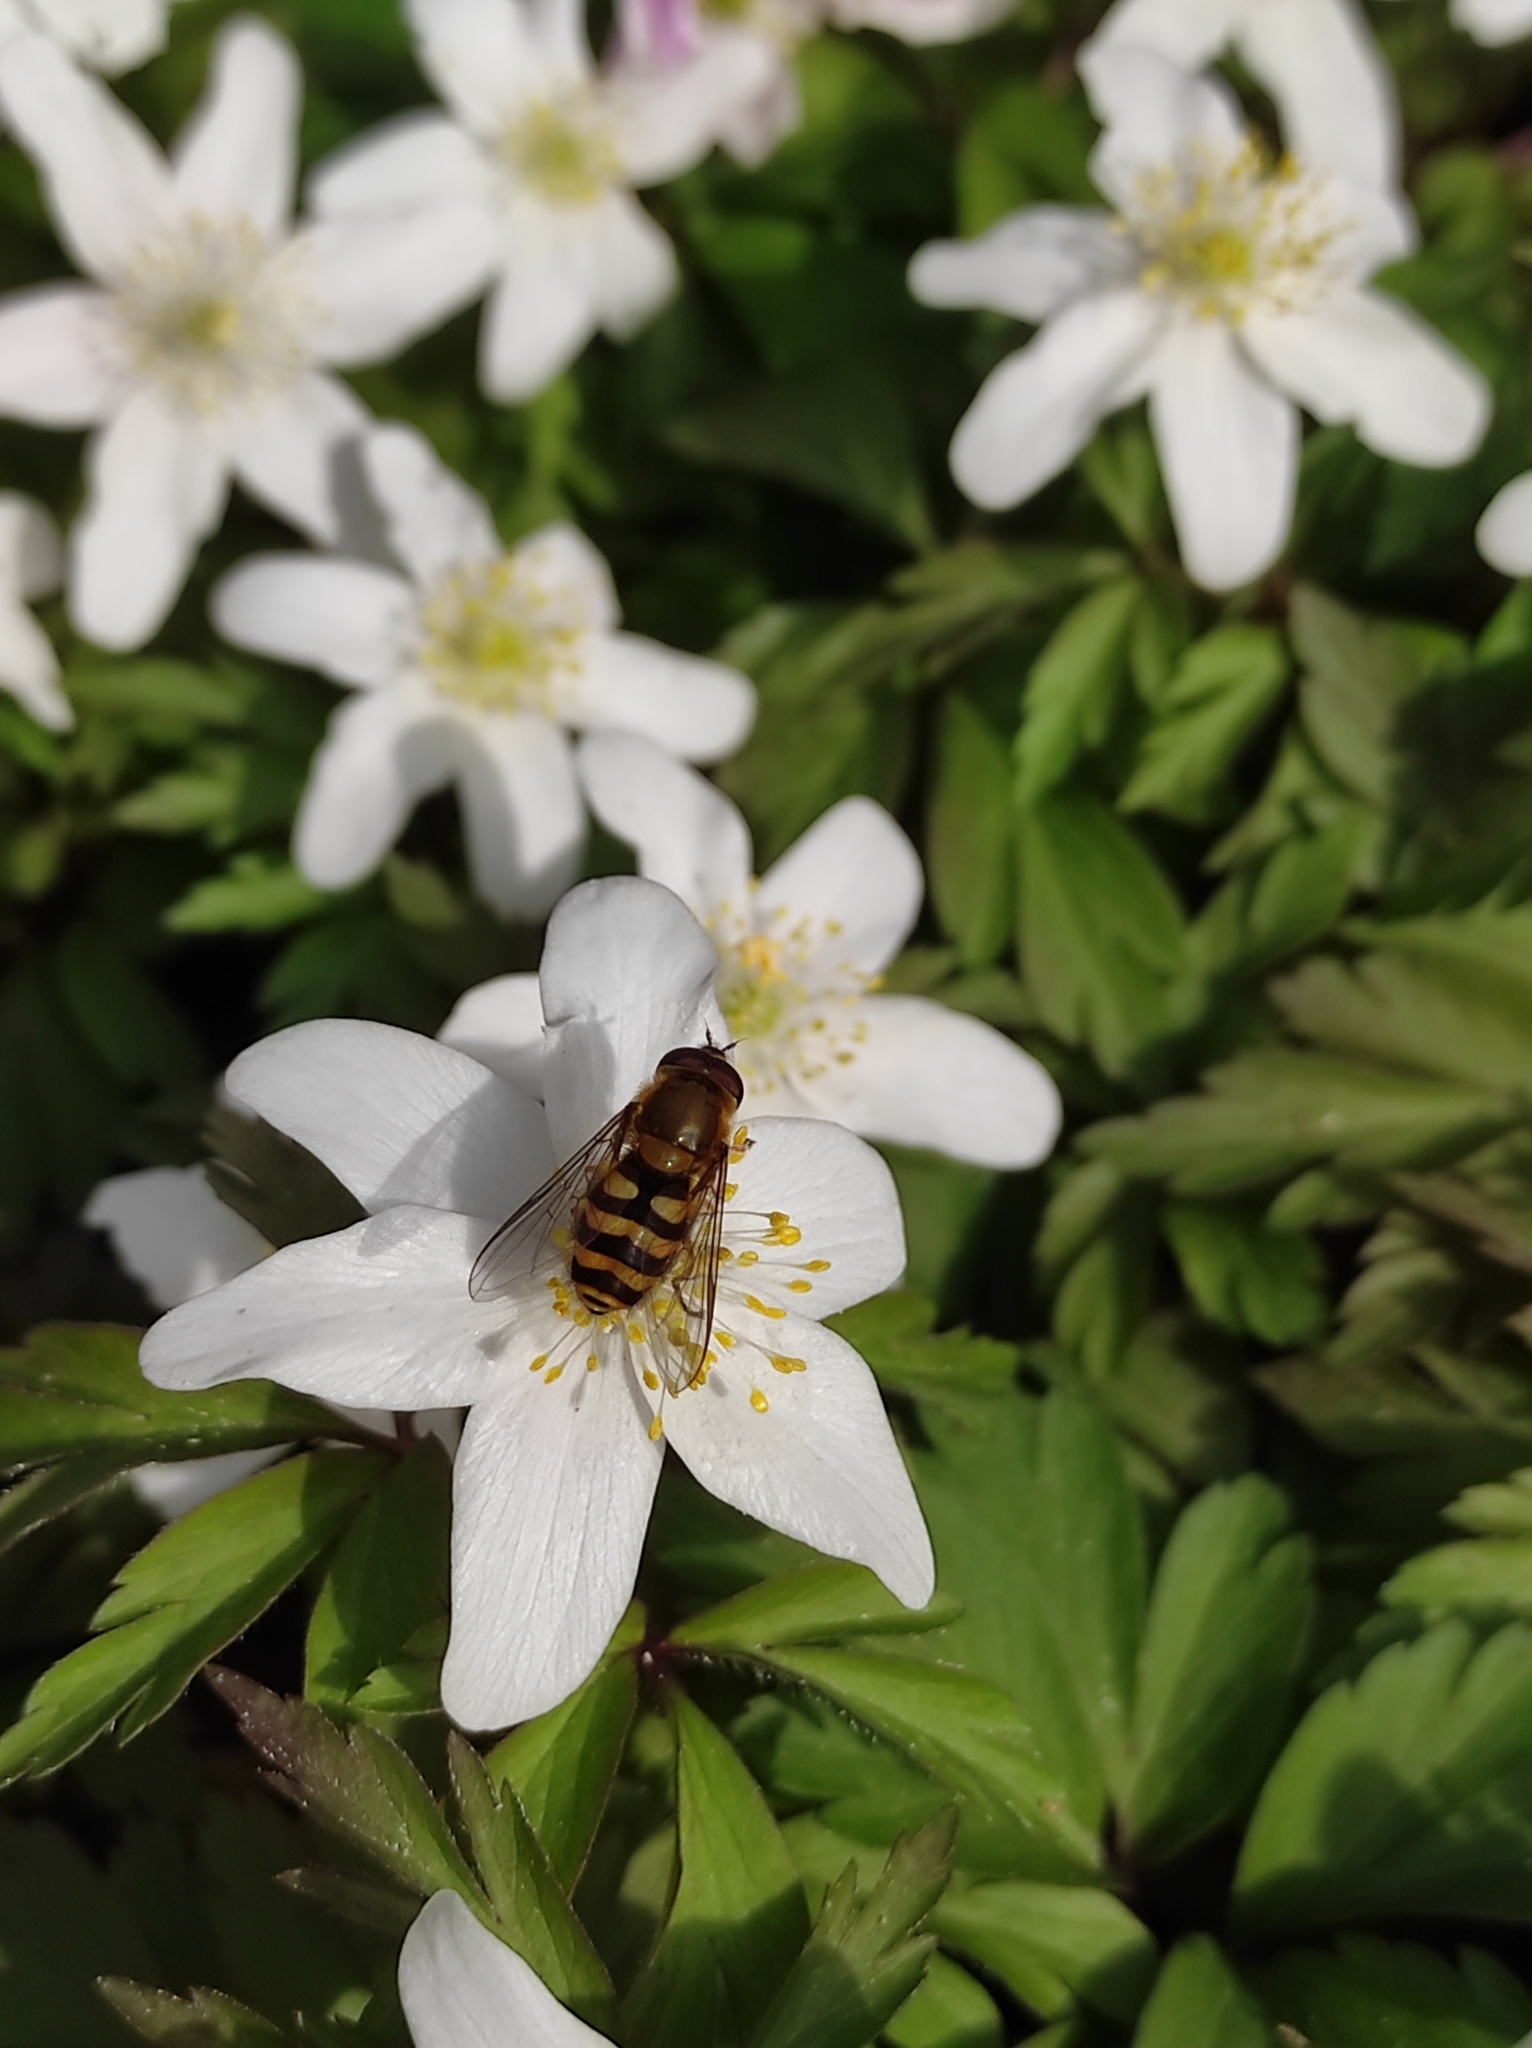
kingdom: Animalia
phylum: Arthropoda
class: Insecta
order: Diptera
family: Syrphidae
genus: Syrphus
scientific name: Syrphus
